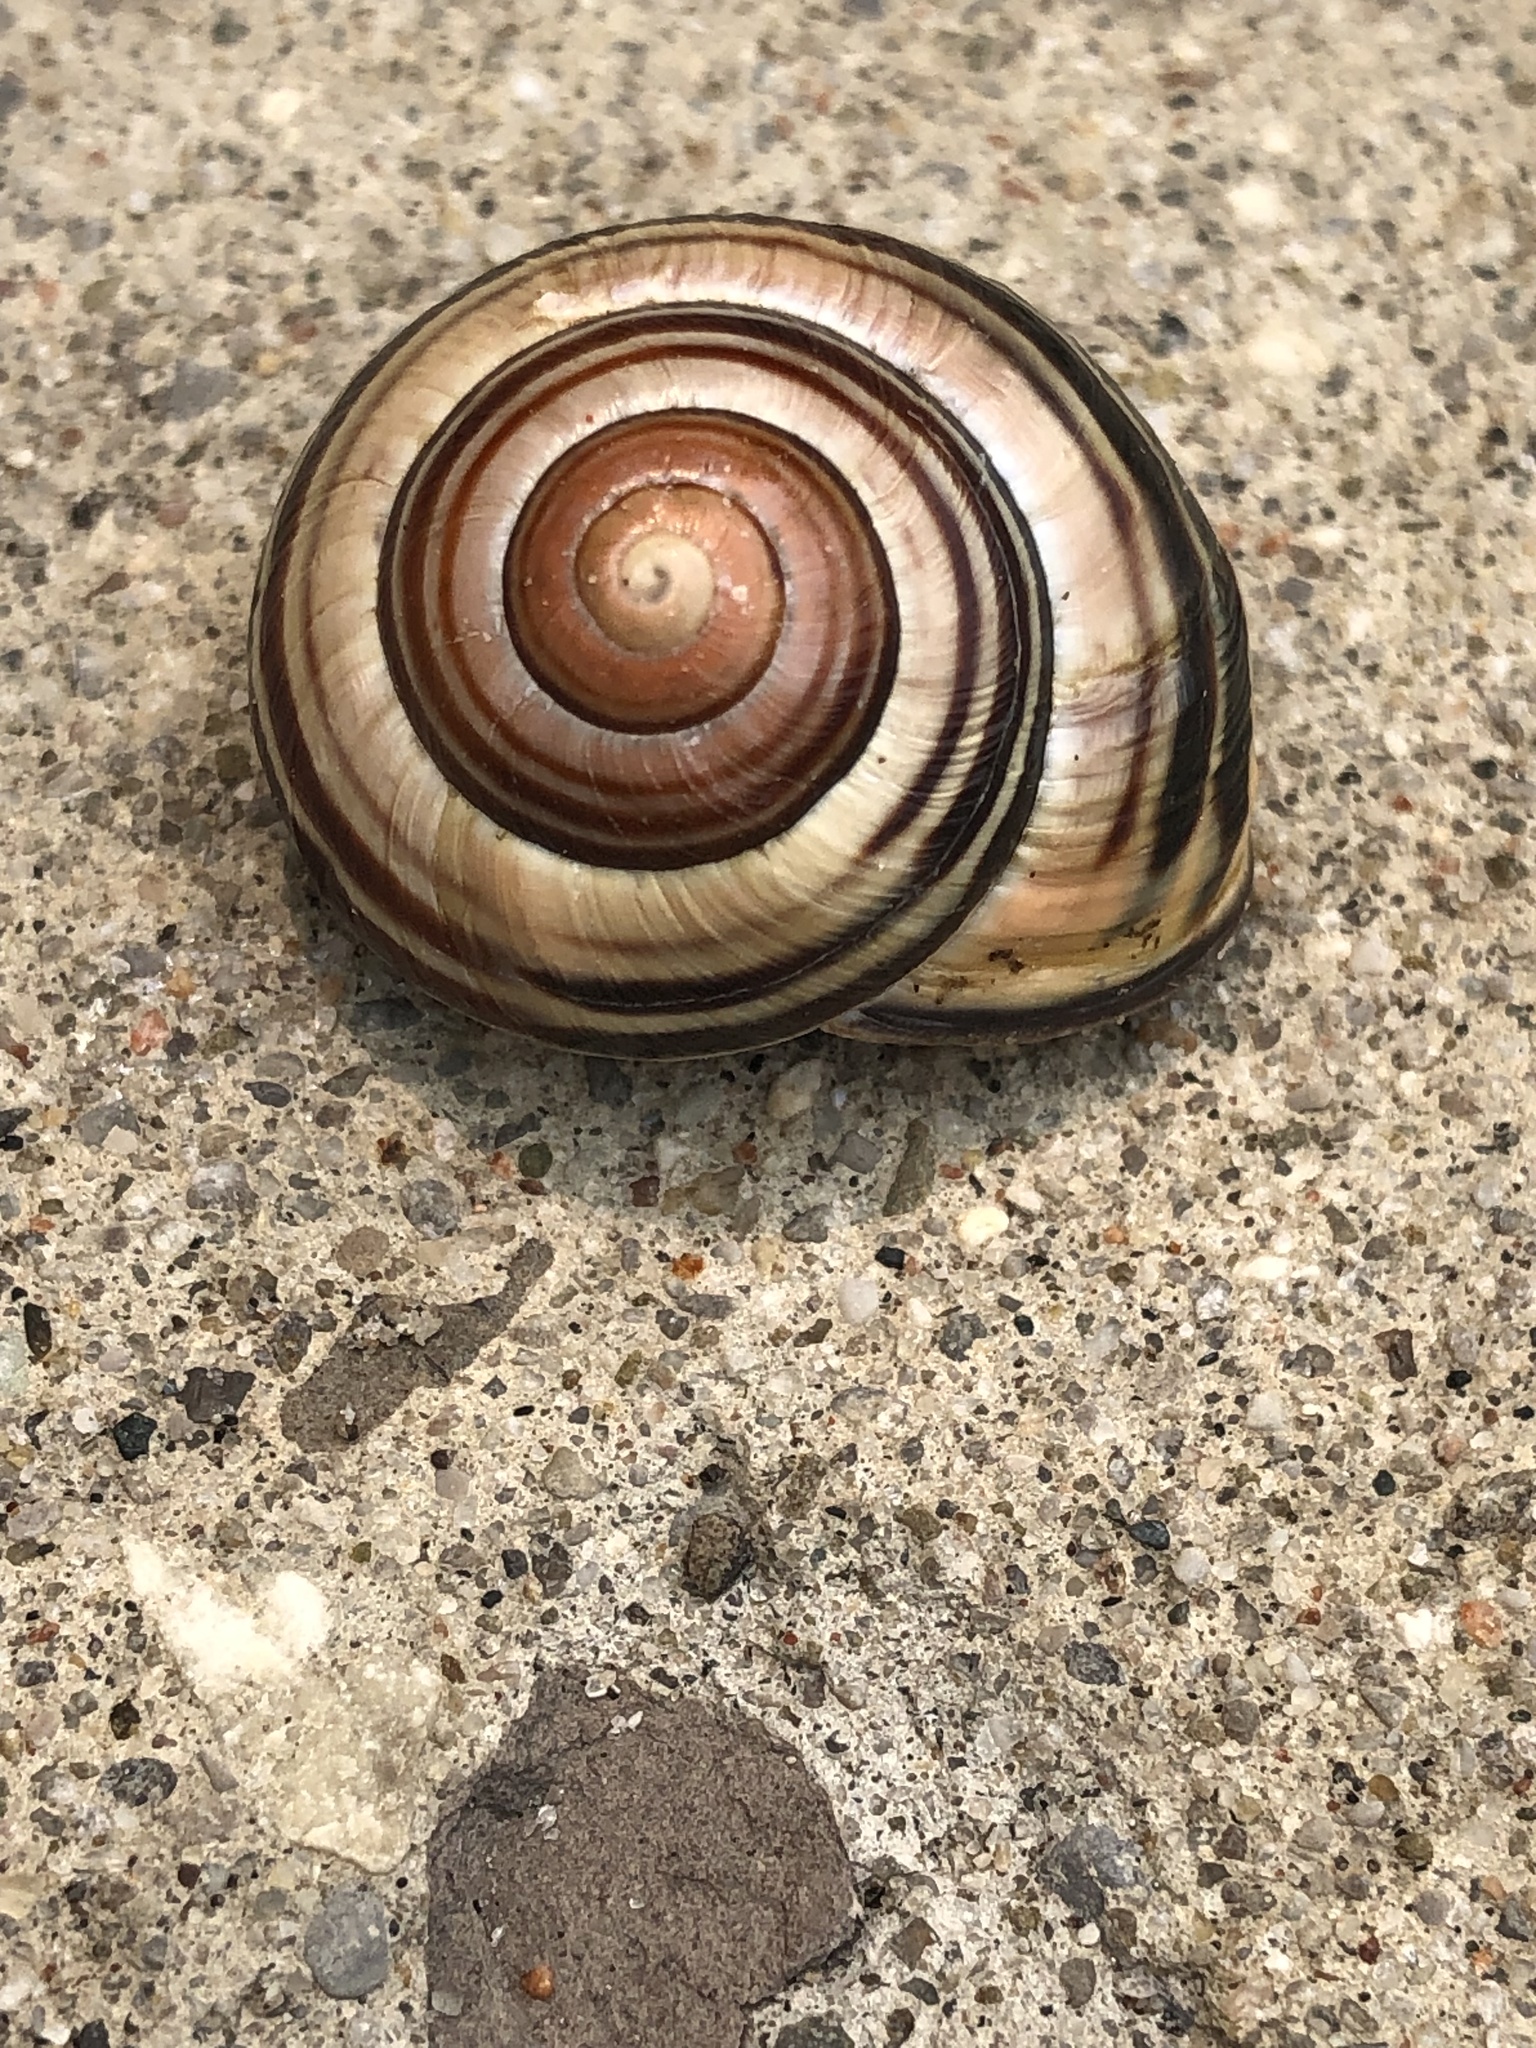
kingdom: Animalia
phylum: Mollusca
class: Gastropoda
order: Stylommatophora
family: Helicidae
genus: Cepaea
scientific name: Cepaea nemoralis
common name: Grovesnail
